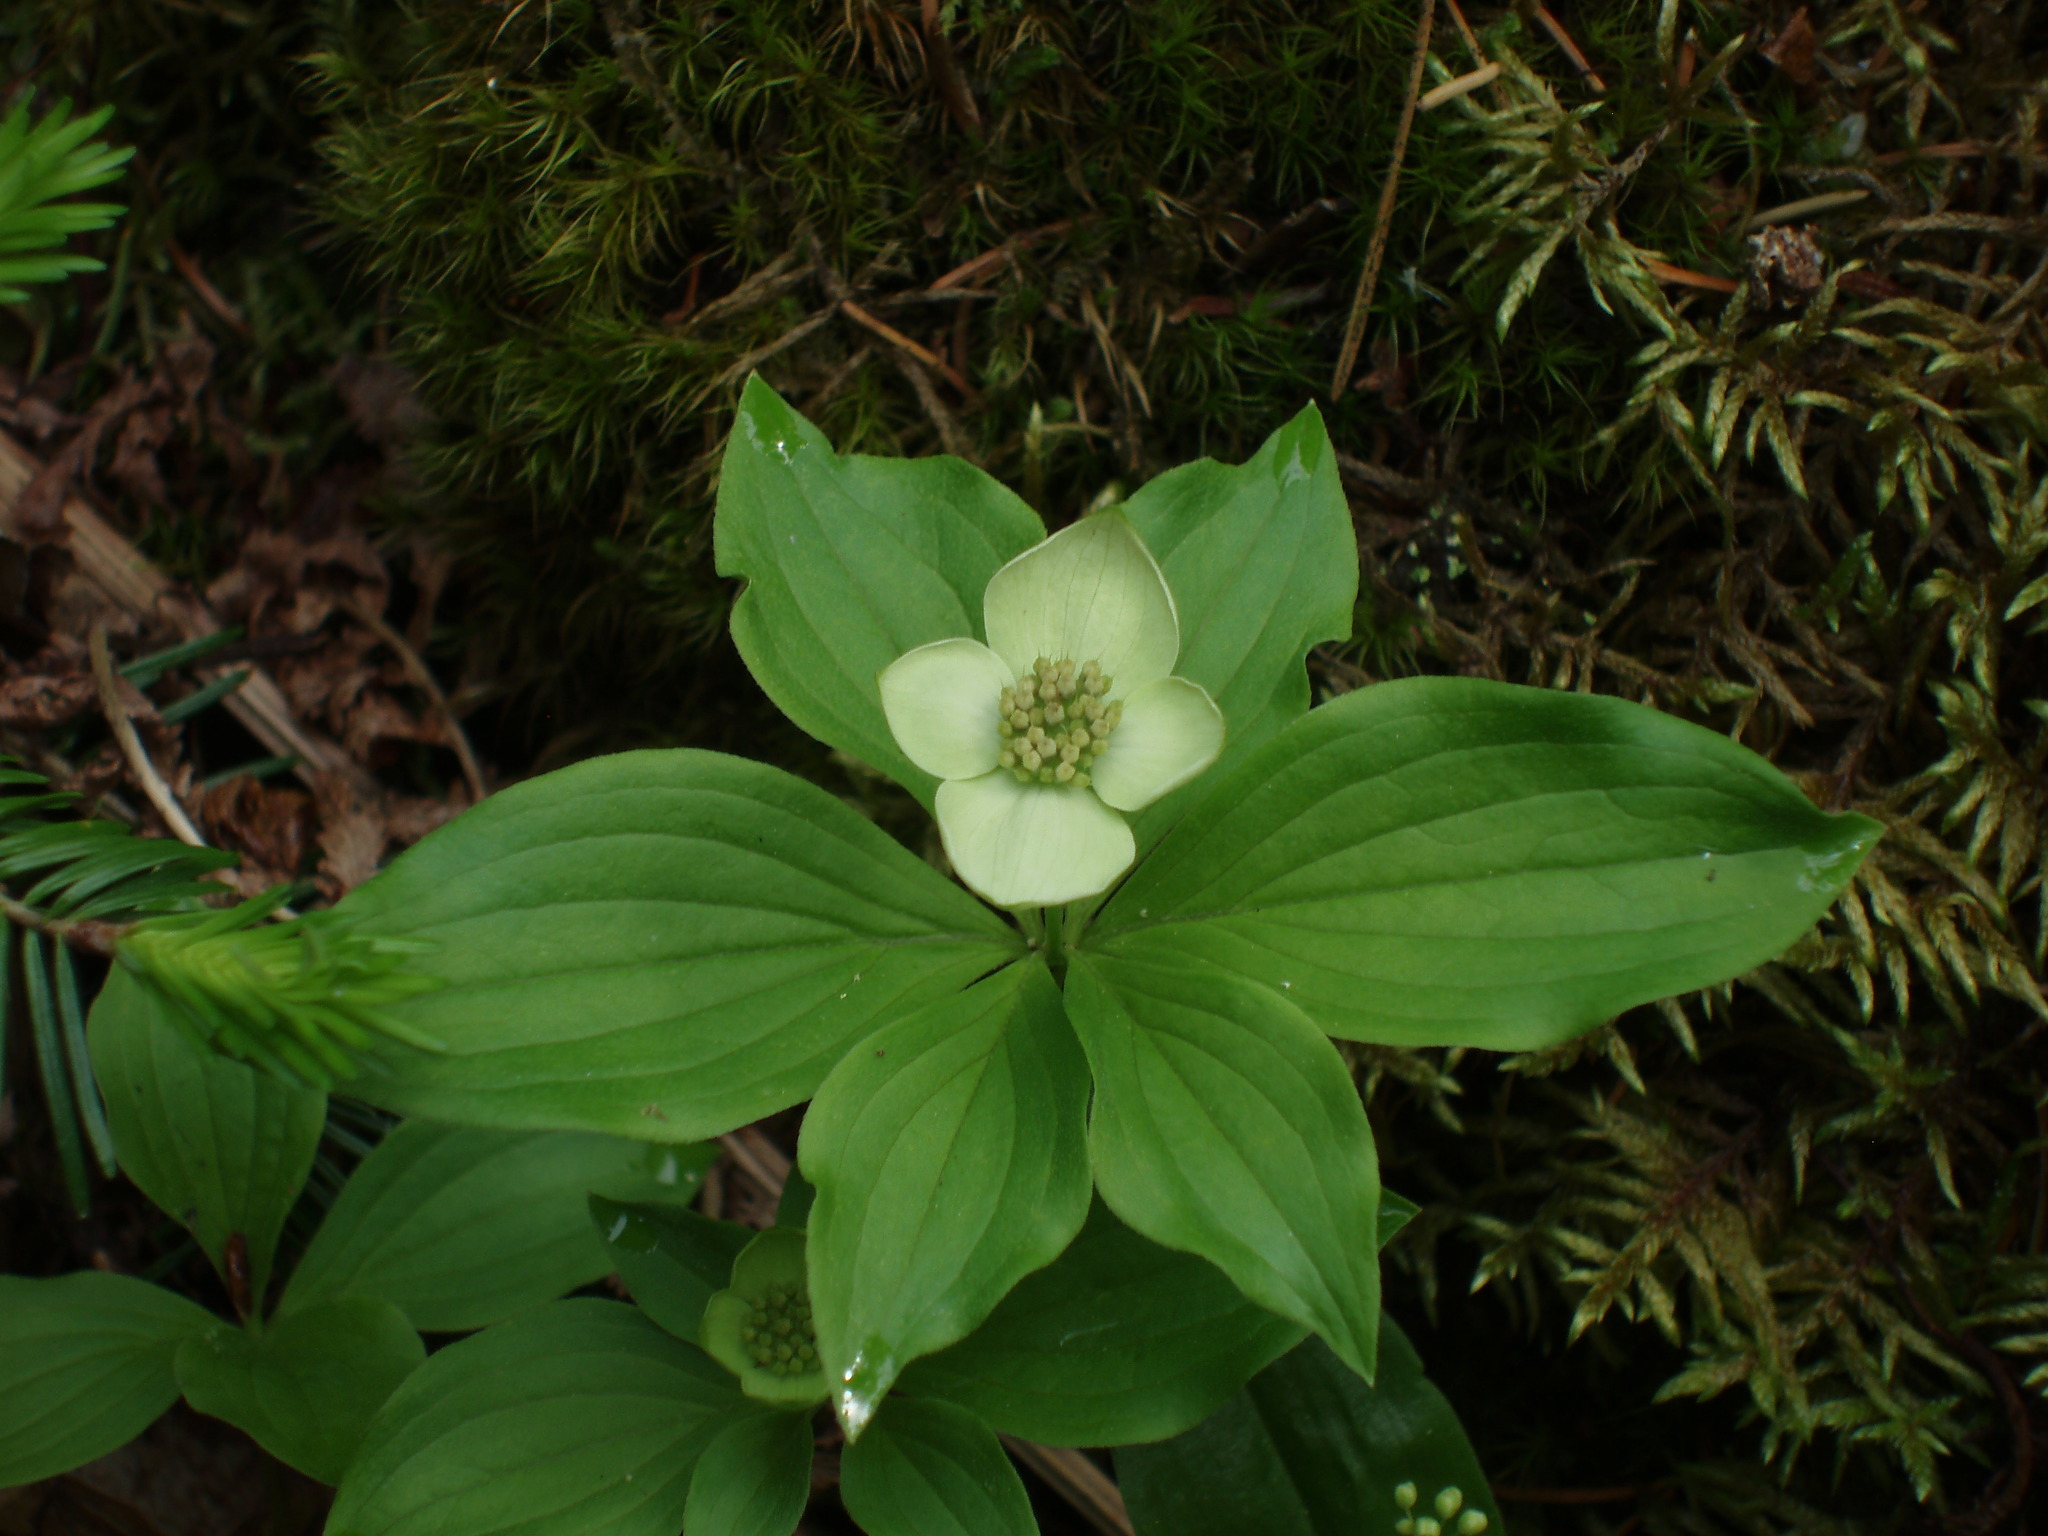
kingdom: Plantae
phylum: Tracheophyta
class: Magnoliopsida
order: Cornales
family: Cornaceae
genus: Cornus
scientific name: Cornus canadensis
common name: Creeping dogwood
